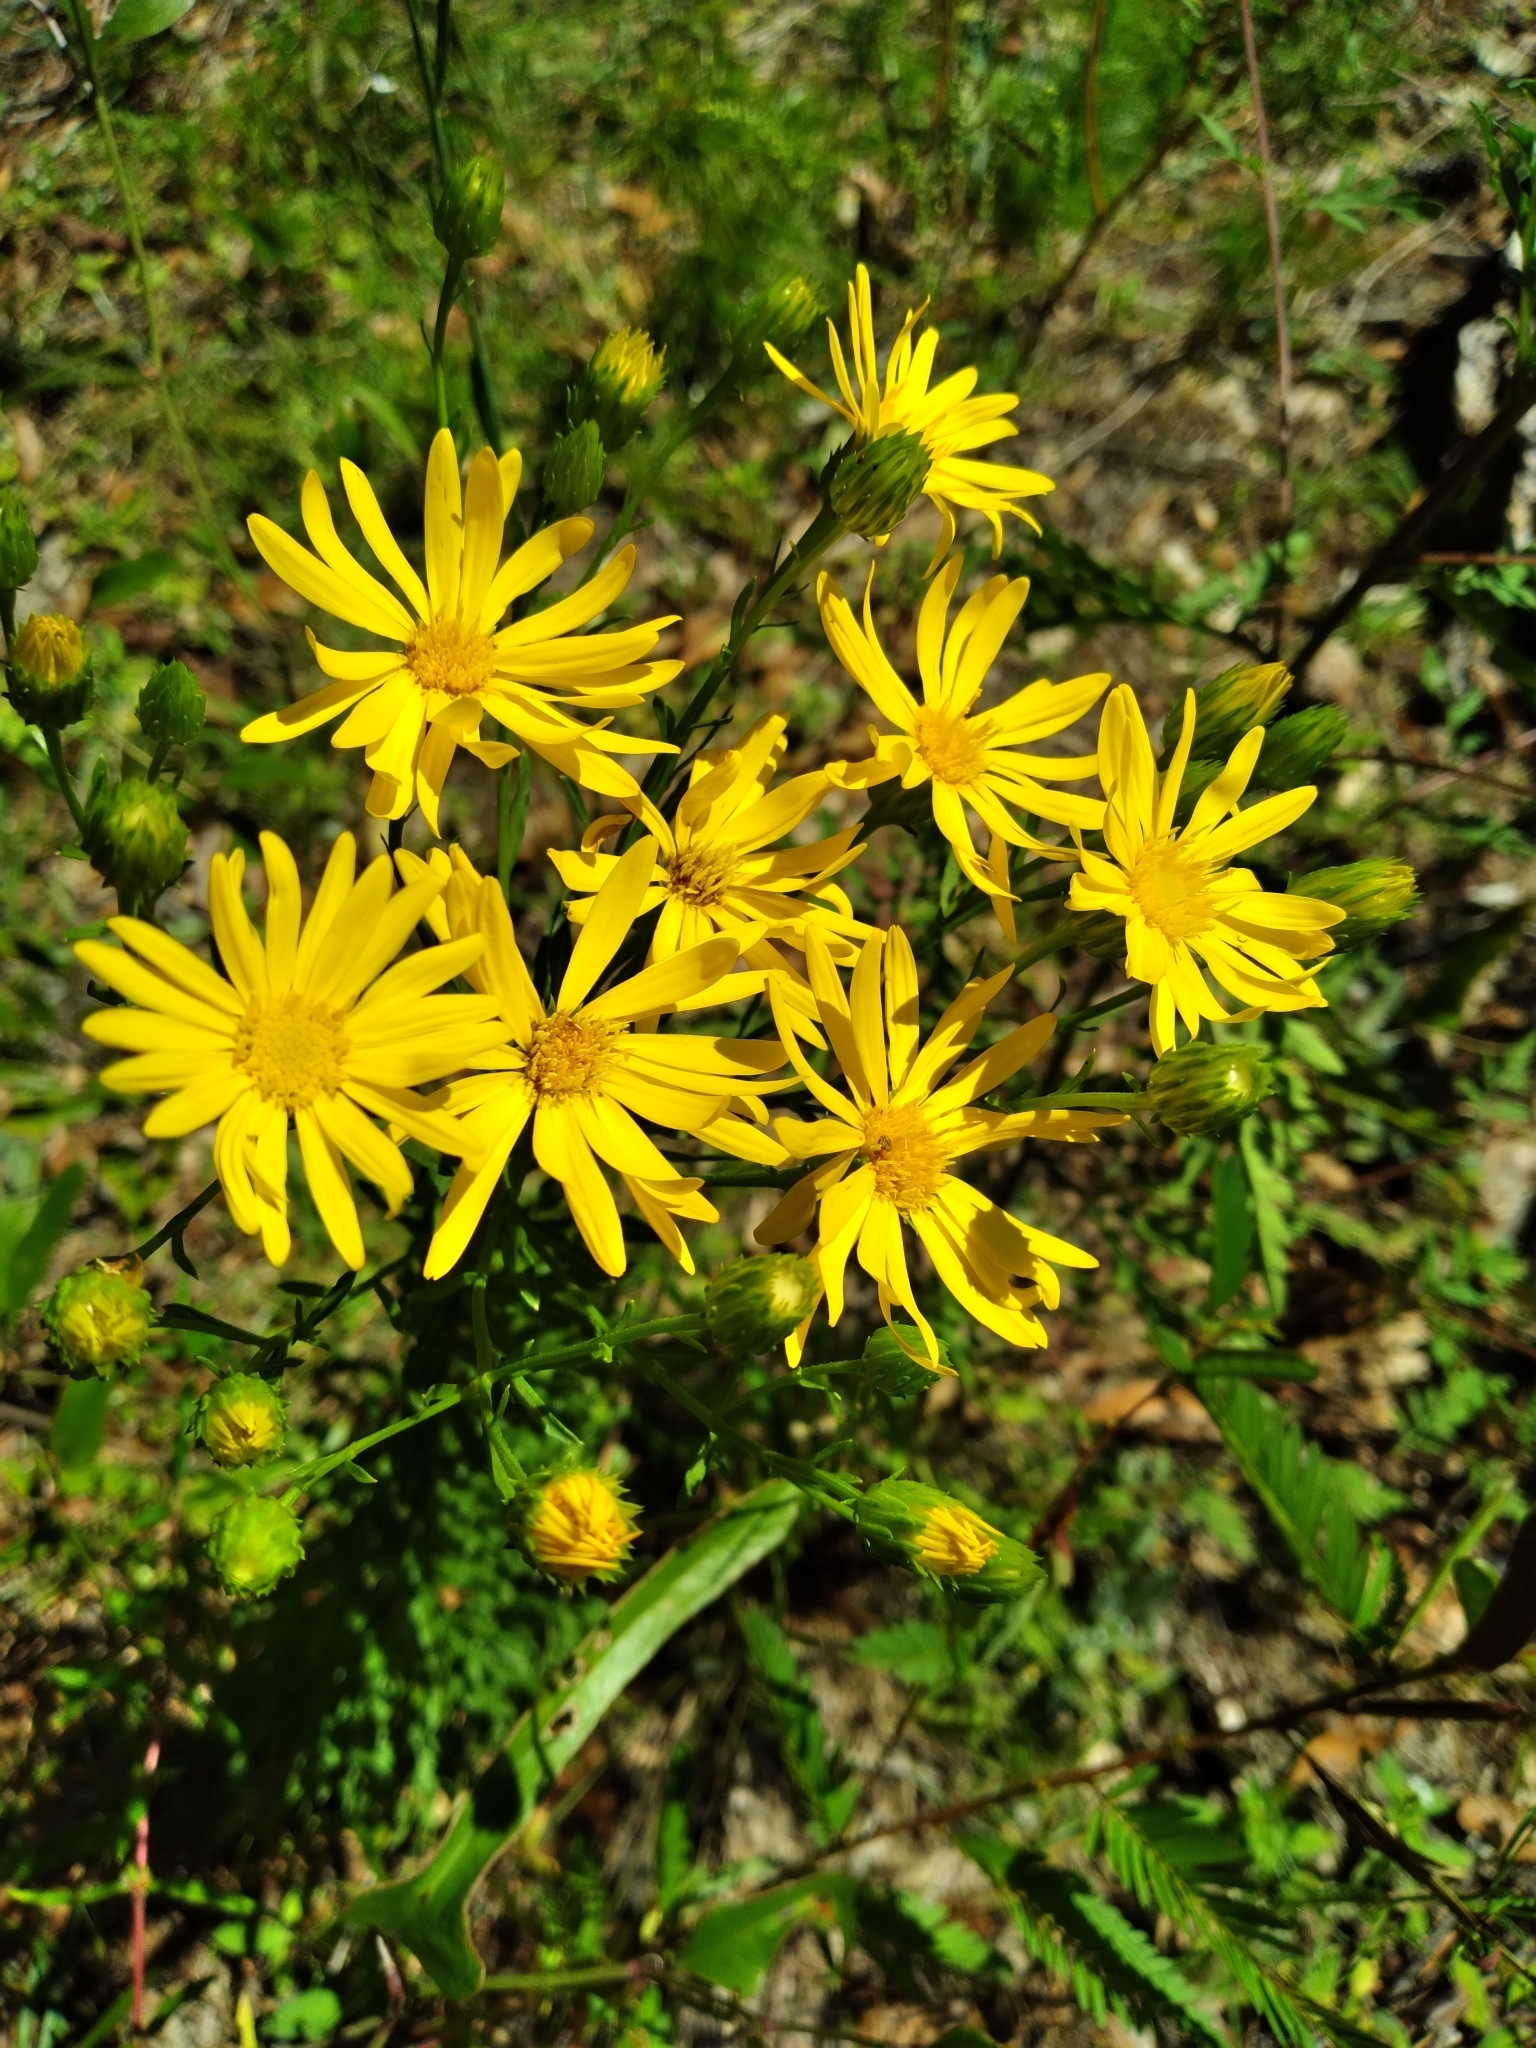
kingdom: Plantae
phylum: Tracheophyta
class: Magnoliopsida
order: Asterales
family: Asteraceae
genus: Chrysopsis
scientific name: Chrysopsis gossypina
